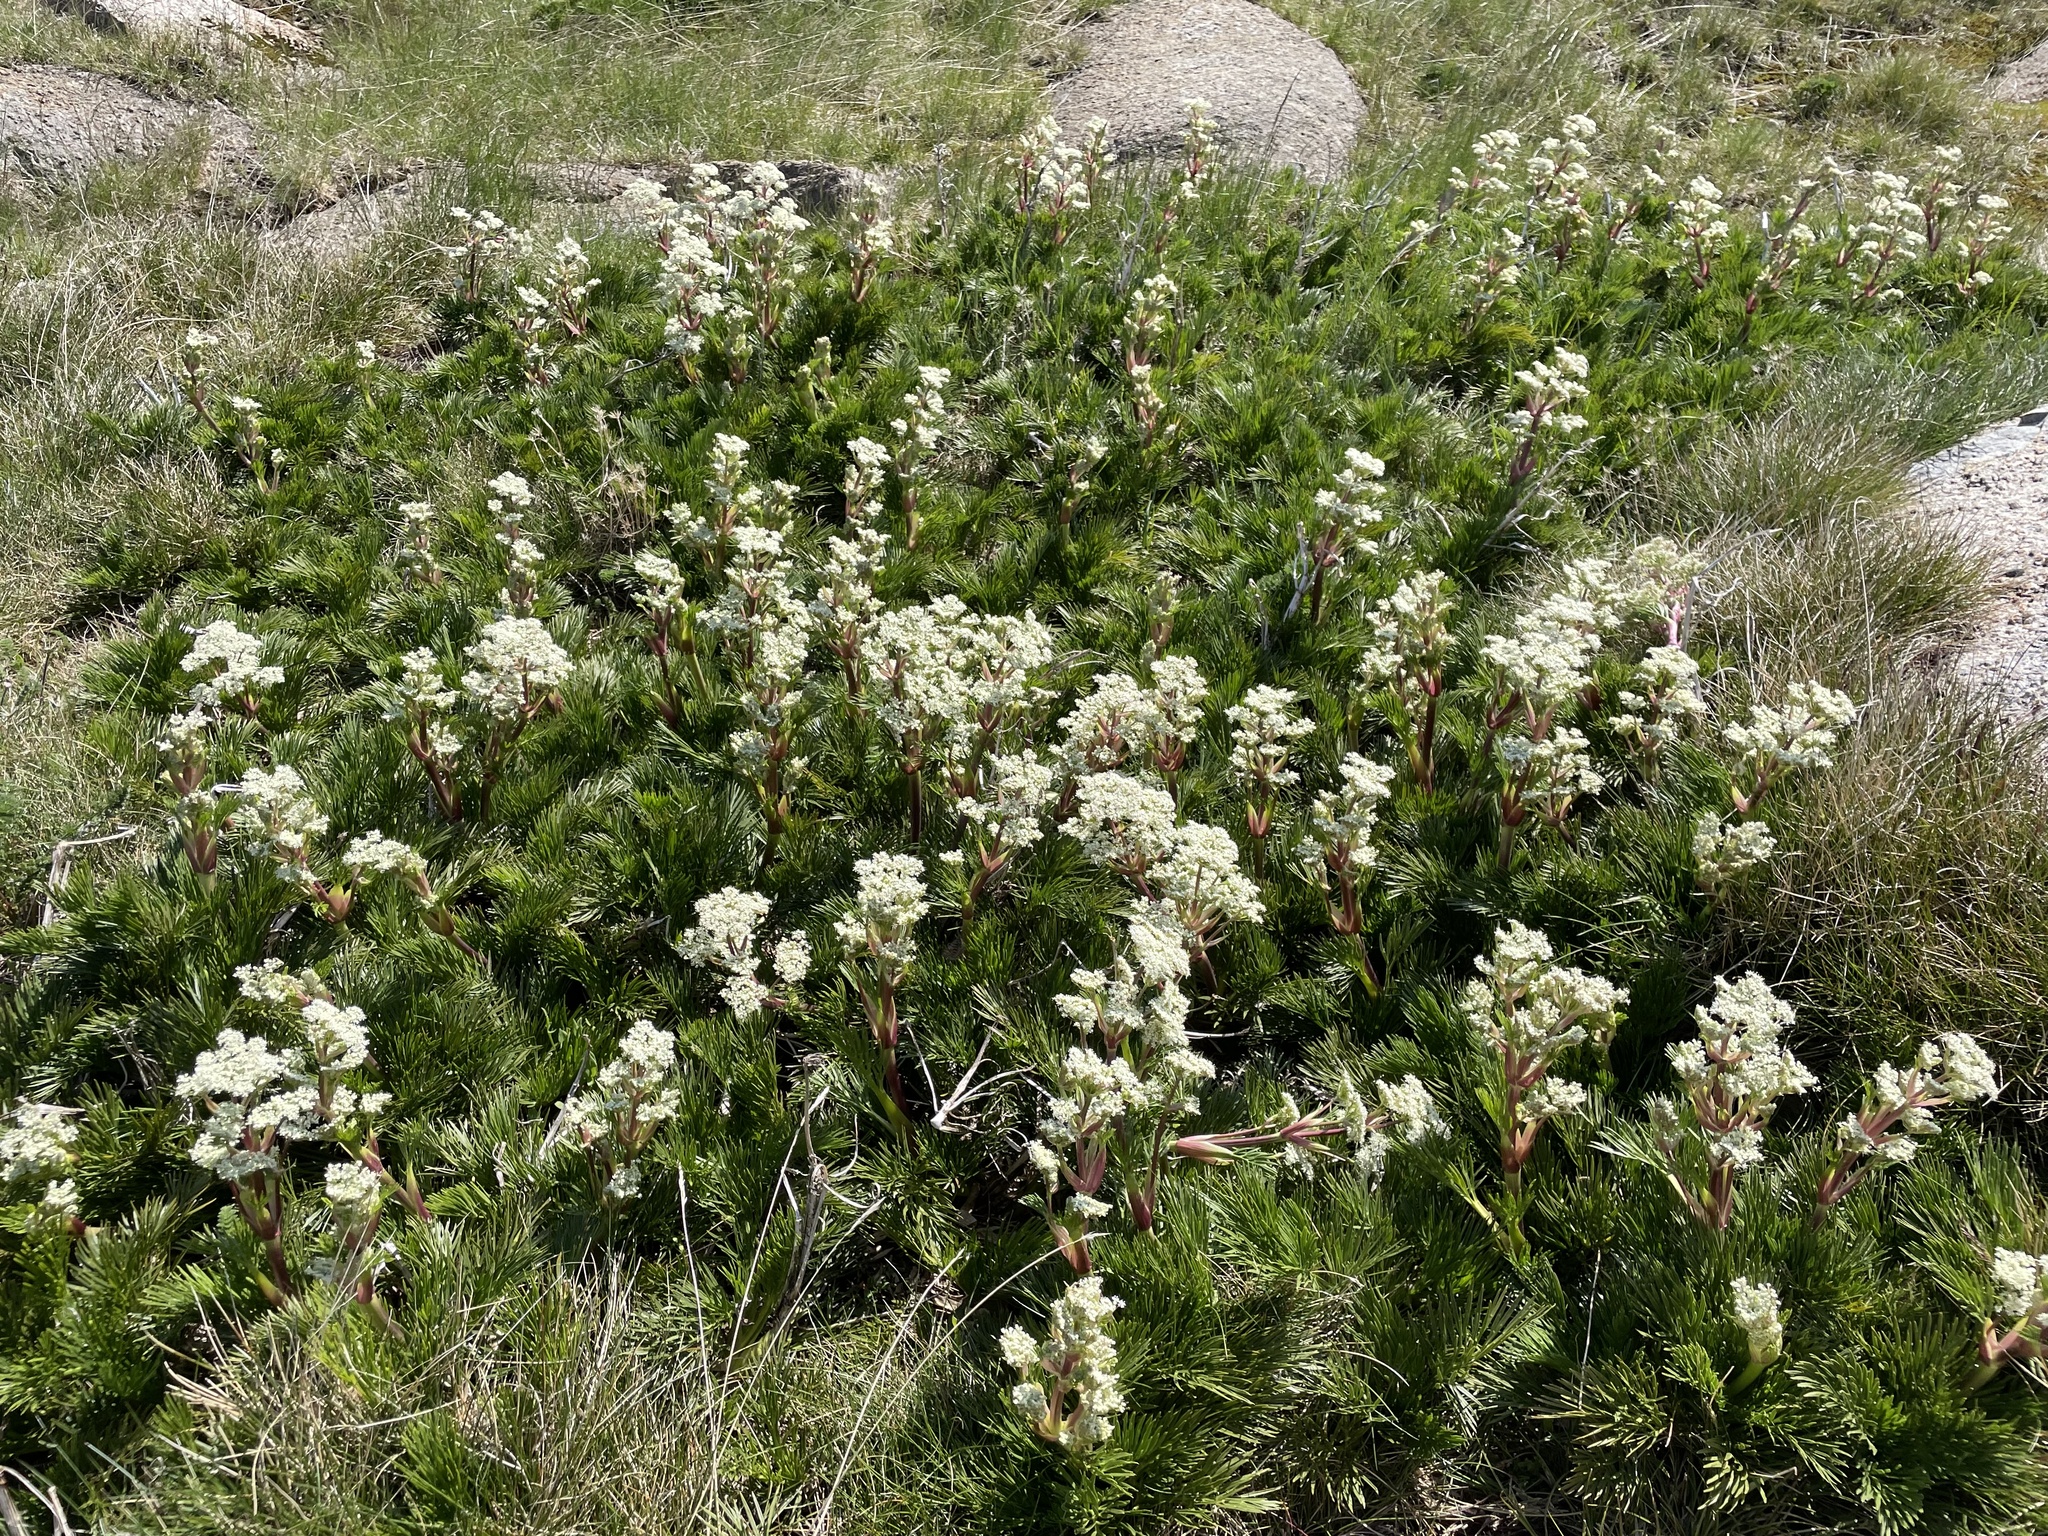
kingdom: Plantae
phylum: Tracheophyta
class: Magnoliopsida
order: Apiales
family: Apiaceae
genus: Aciphylla
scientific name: Aciphylla glacialis
